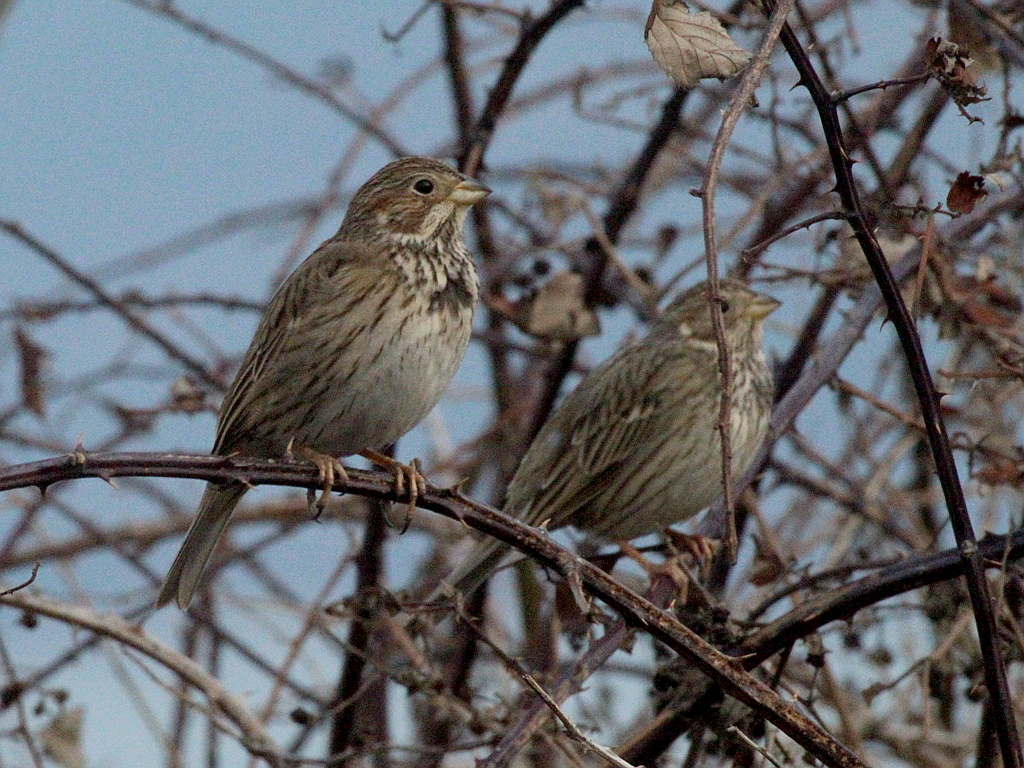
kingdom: Animalia
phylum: Chordata
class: Aves
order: Passeriformes
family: Emberizidae
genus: Emberiza
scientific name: Emberiza calandra
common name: Corn bunting
